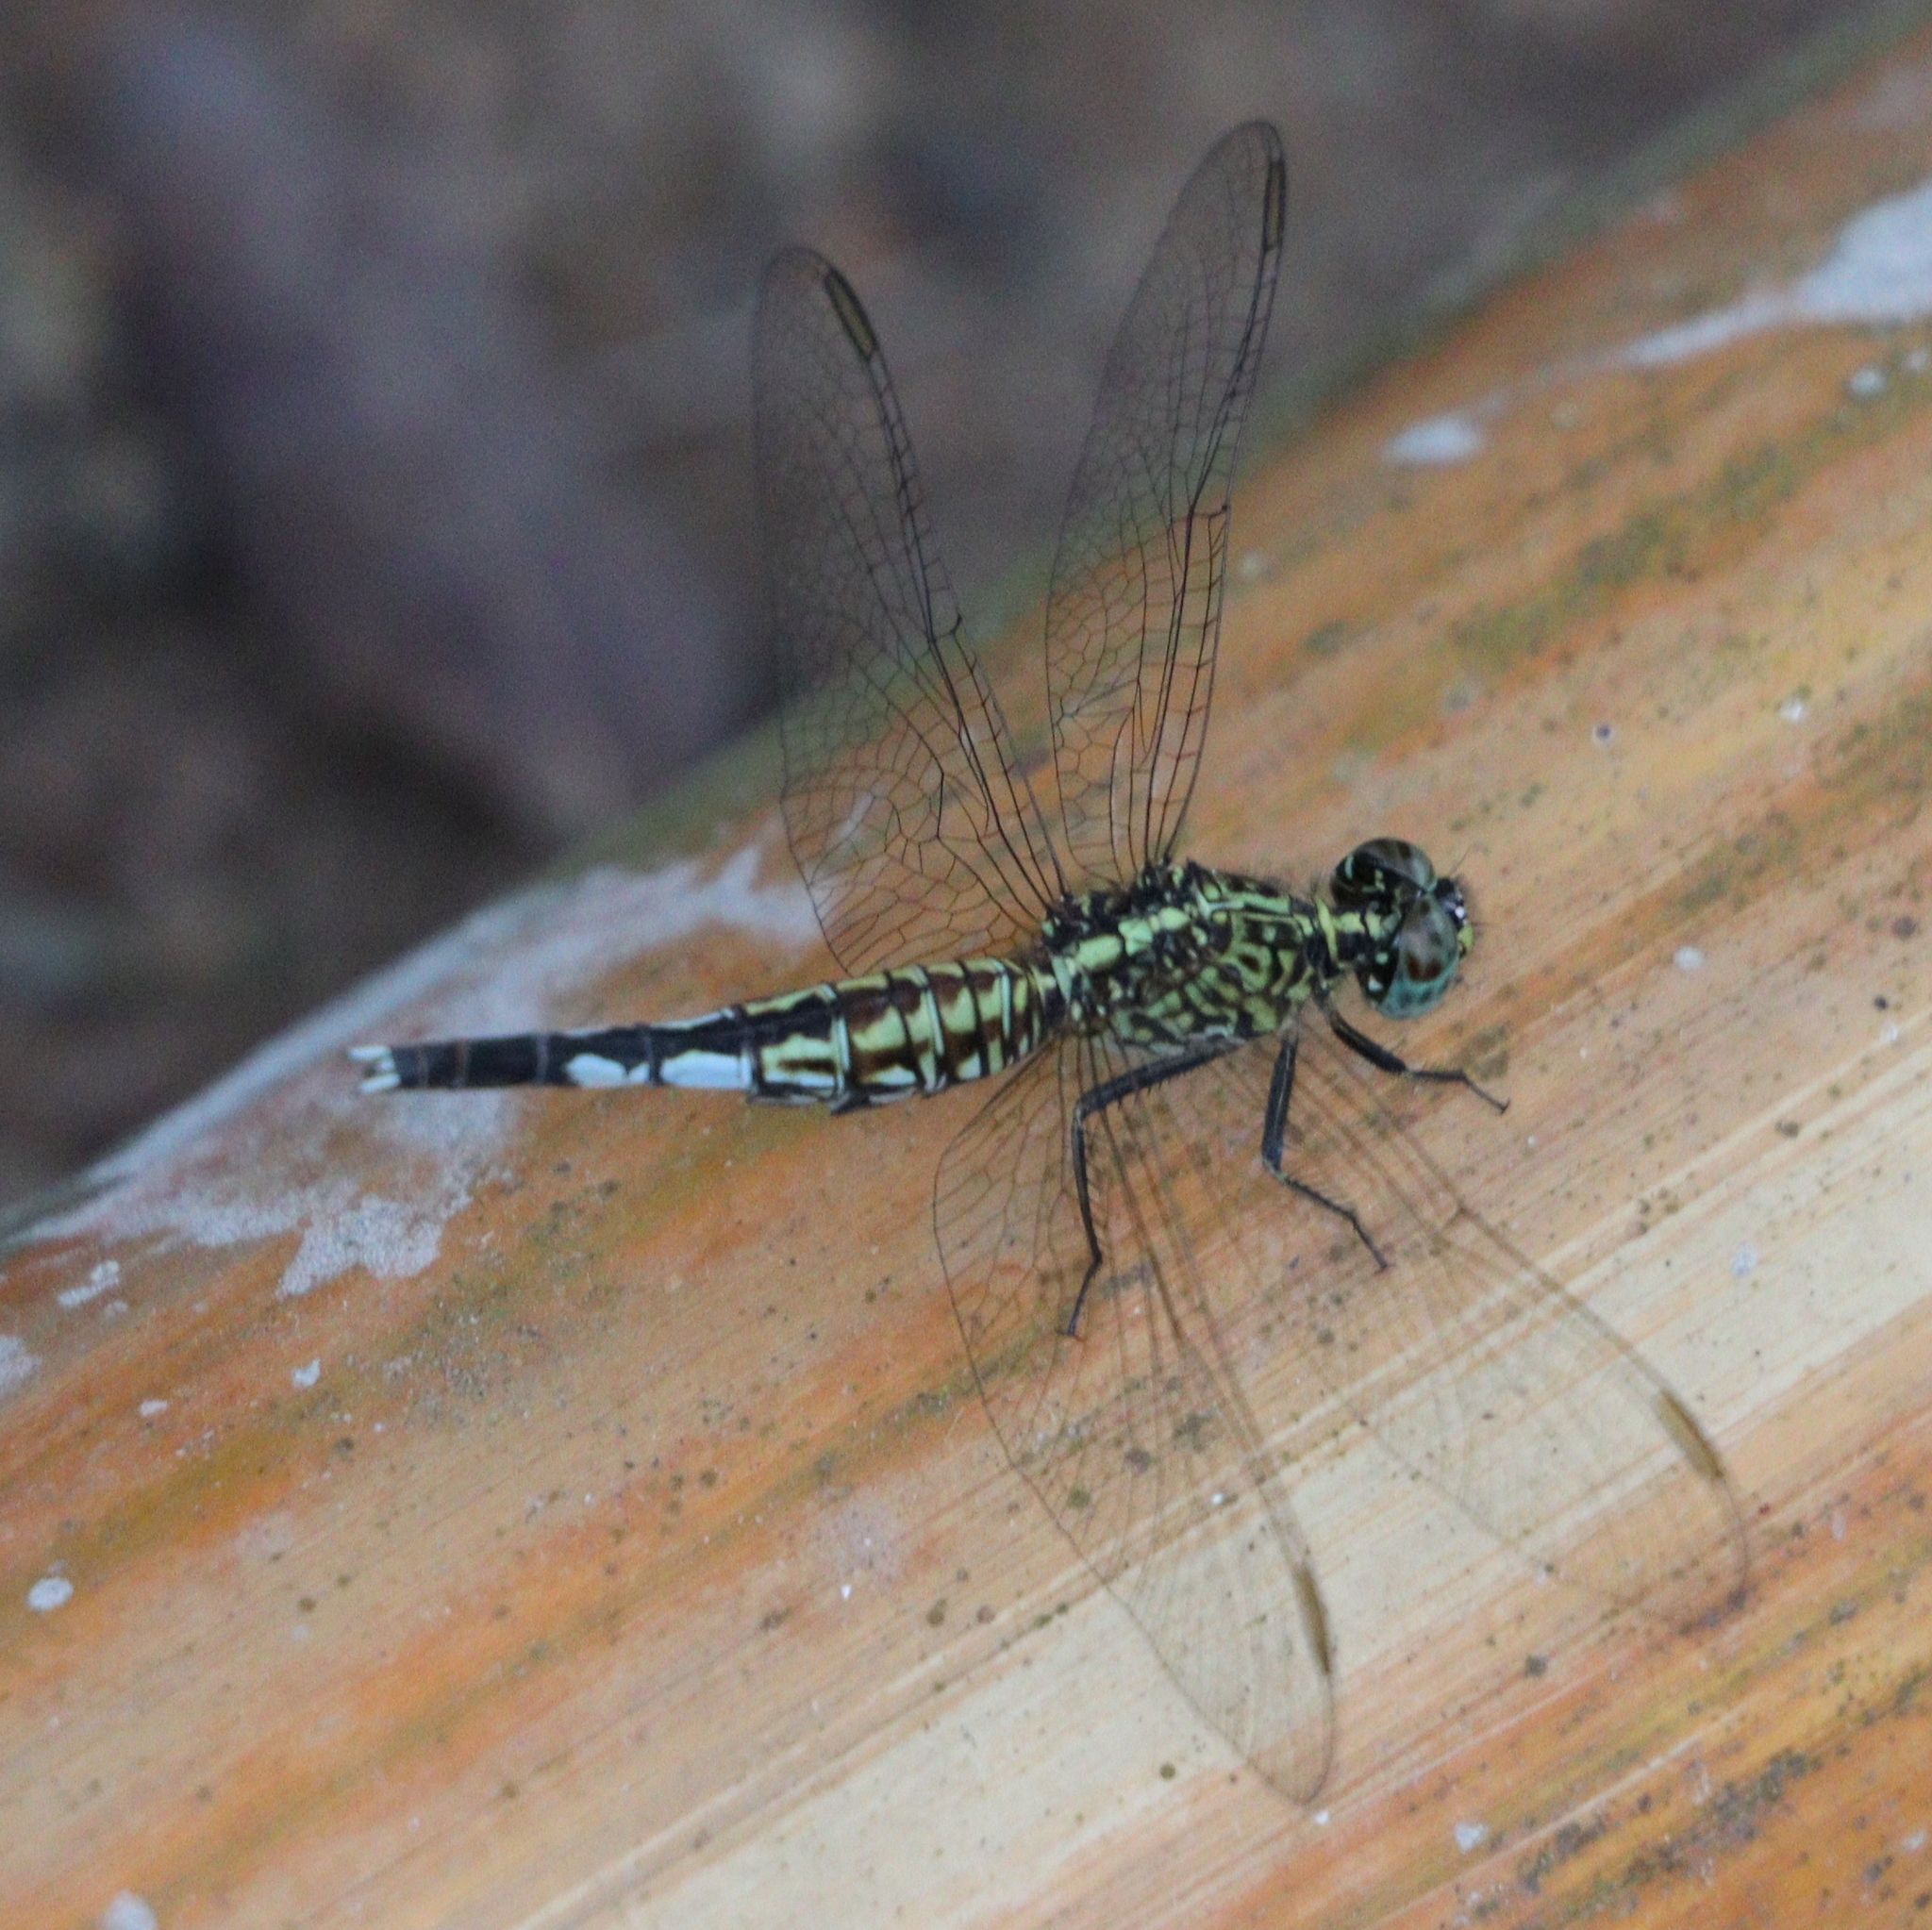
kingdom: Animalia
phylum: Arthropoda
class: Insecta
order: Odonata
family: Libellulidae
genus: Acisoma
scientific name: Acisoma inflatum
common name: Stout pintail
